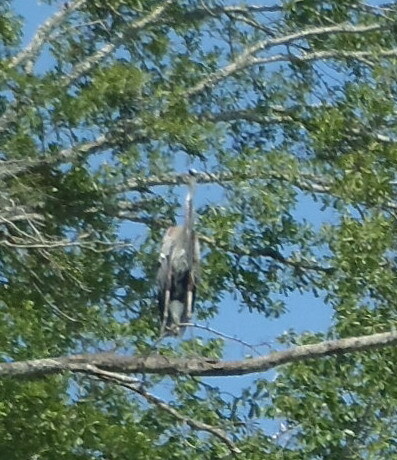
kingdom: Animalia
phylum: Chordata
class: Aves
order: Pelecaniformes
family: Ardeidae
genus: Ardea
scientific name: Ardea herodias
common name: Great blue heron
